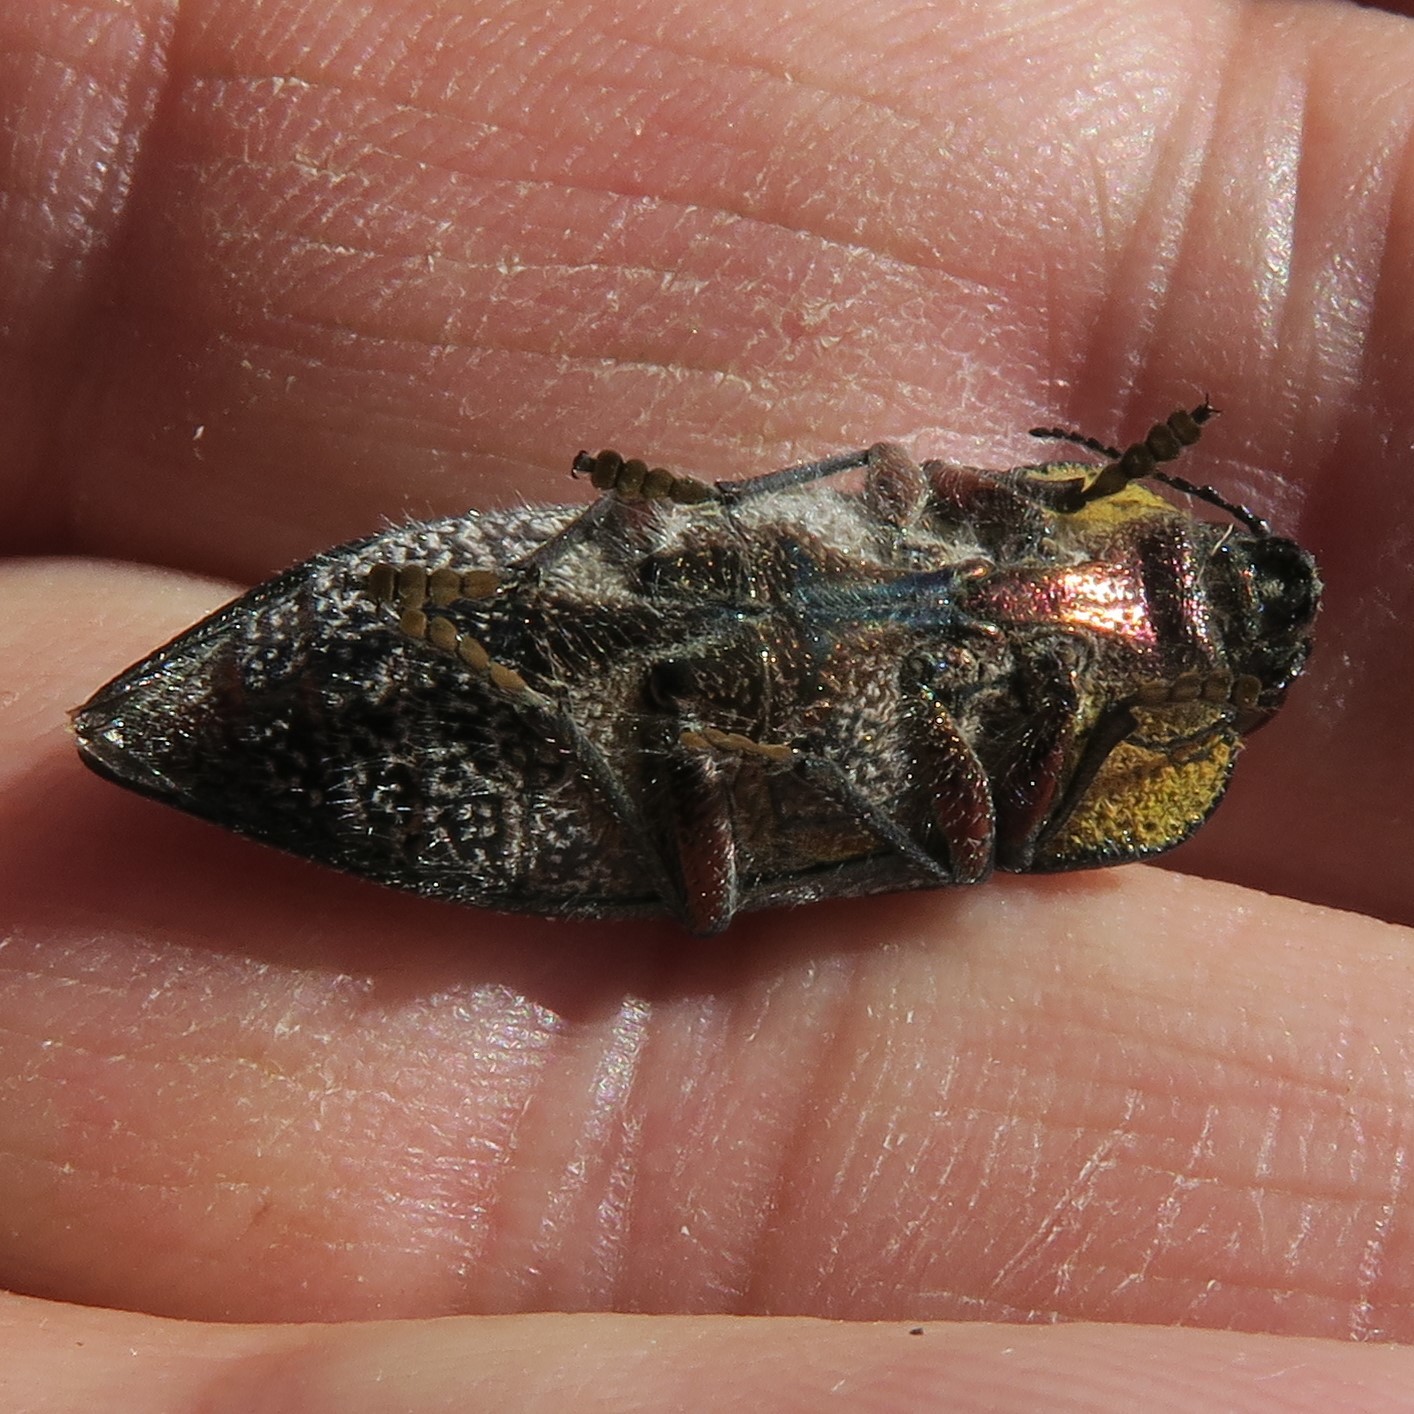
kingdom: Animalia
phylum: Arthropoda
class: Insecta
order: Coleoptera
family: Buprestidae
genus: Embrikillium
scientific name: Embrikillium patricium
